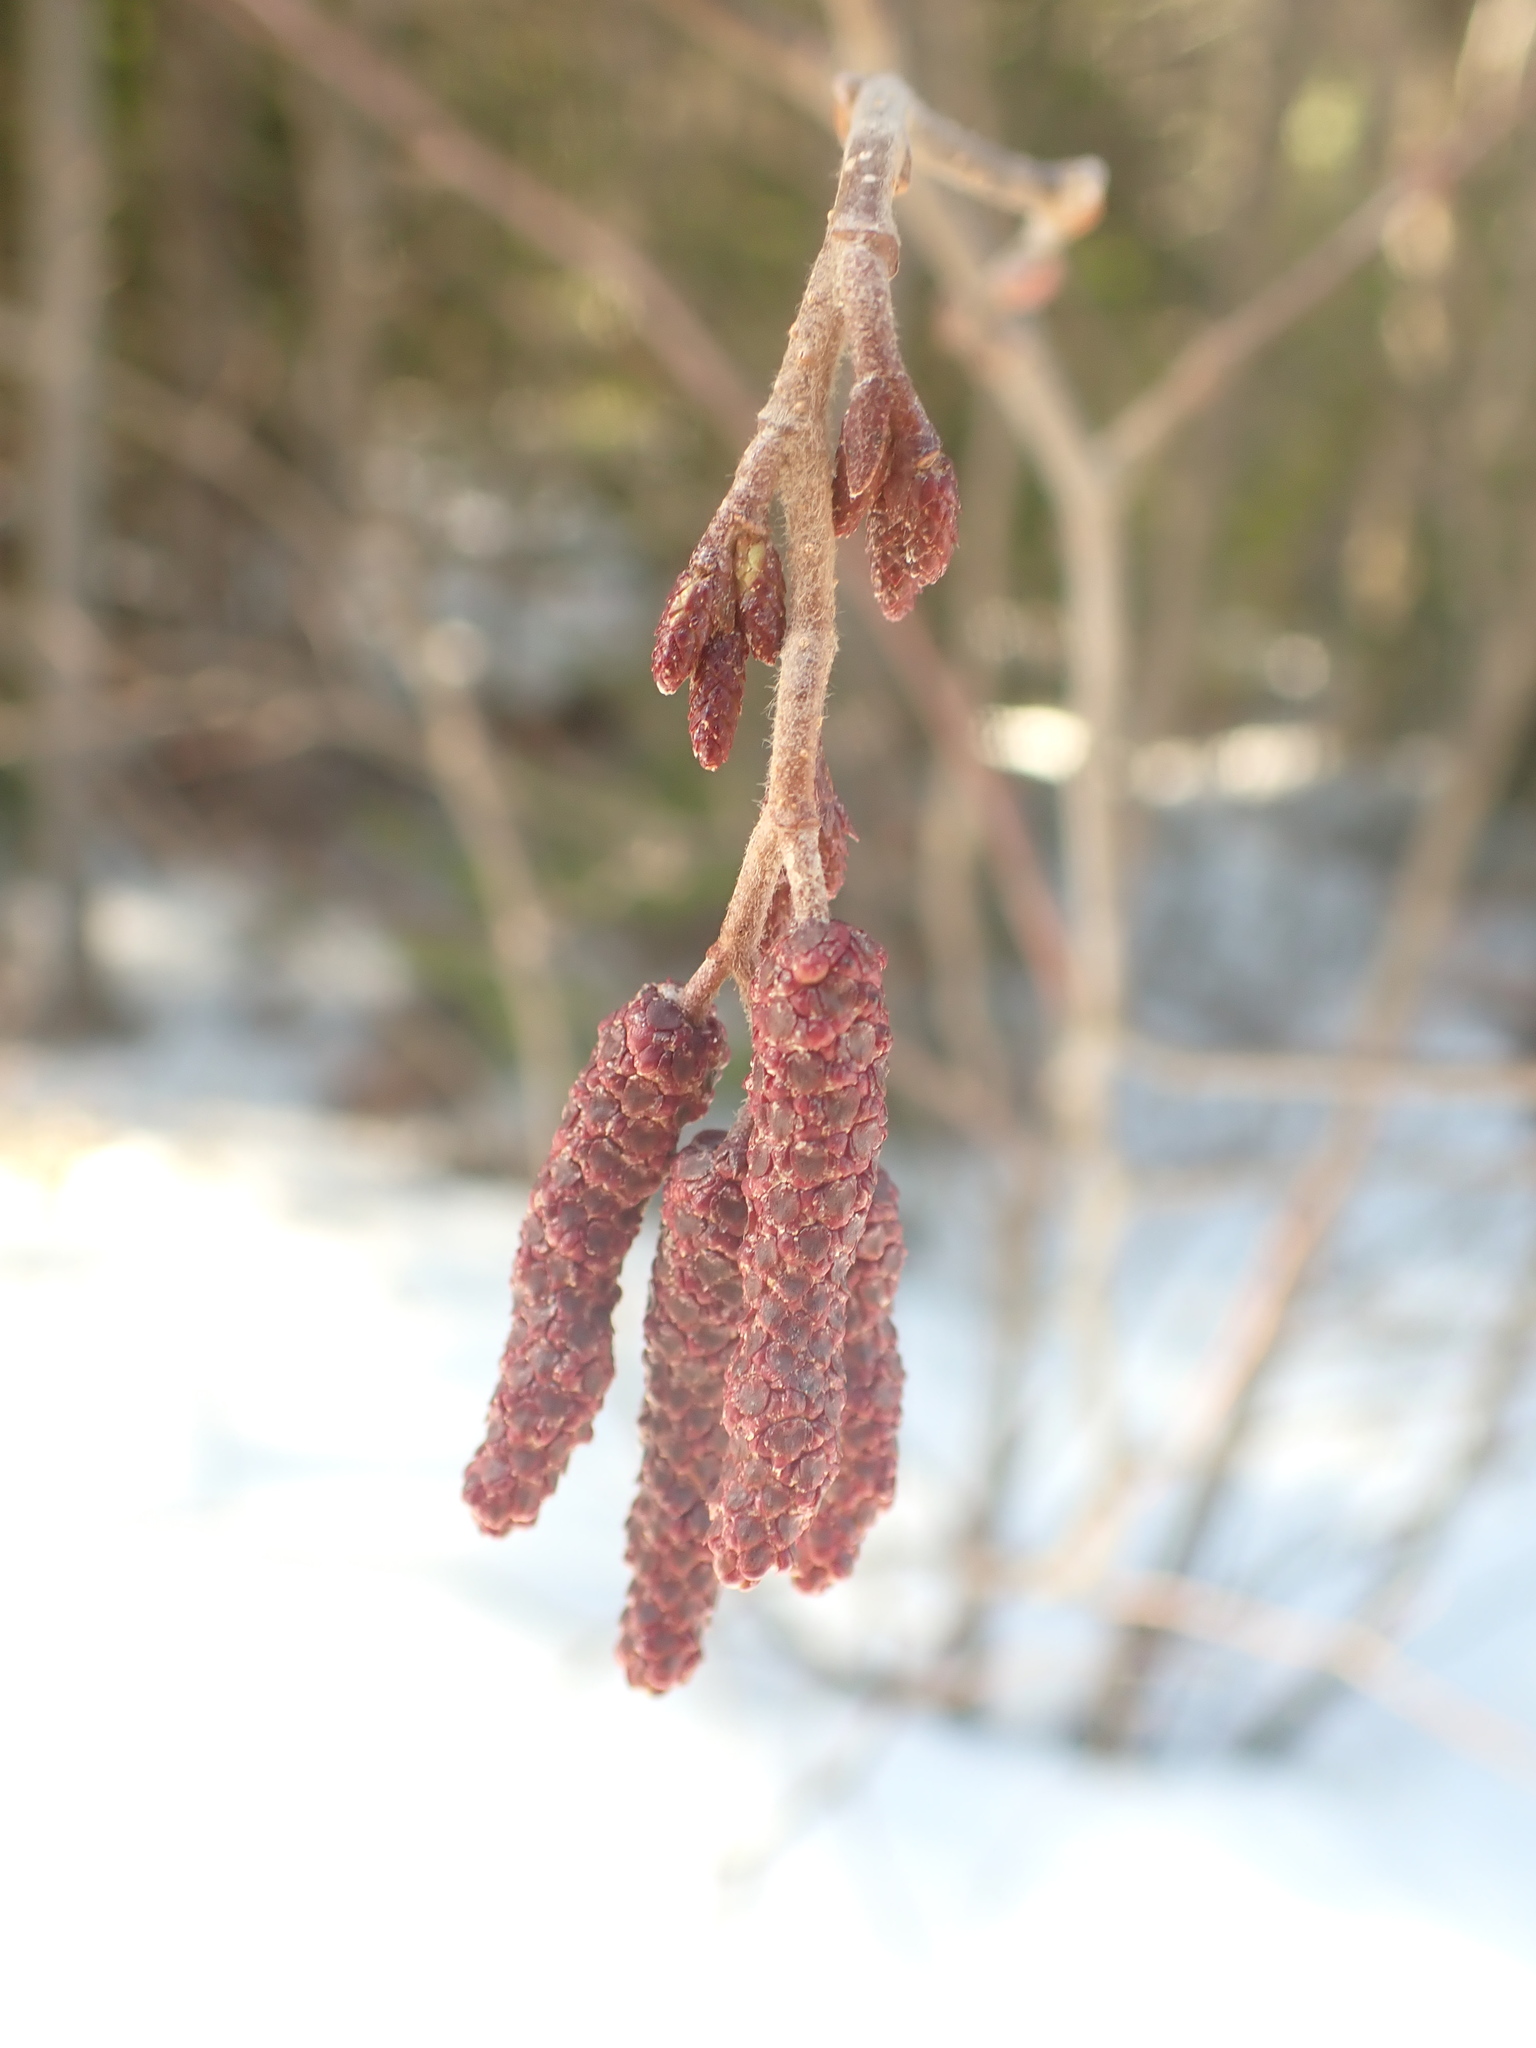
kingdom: Plantae
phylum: Tracheophyta
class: Magnoliopsida
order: Fagales
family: Betulaceae
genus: Alnus
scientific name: Alnus incana
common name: Grey alder
